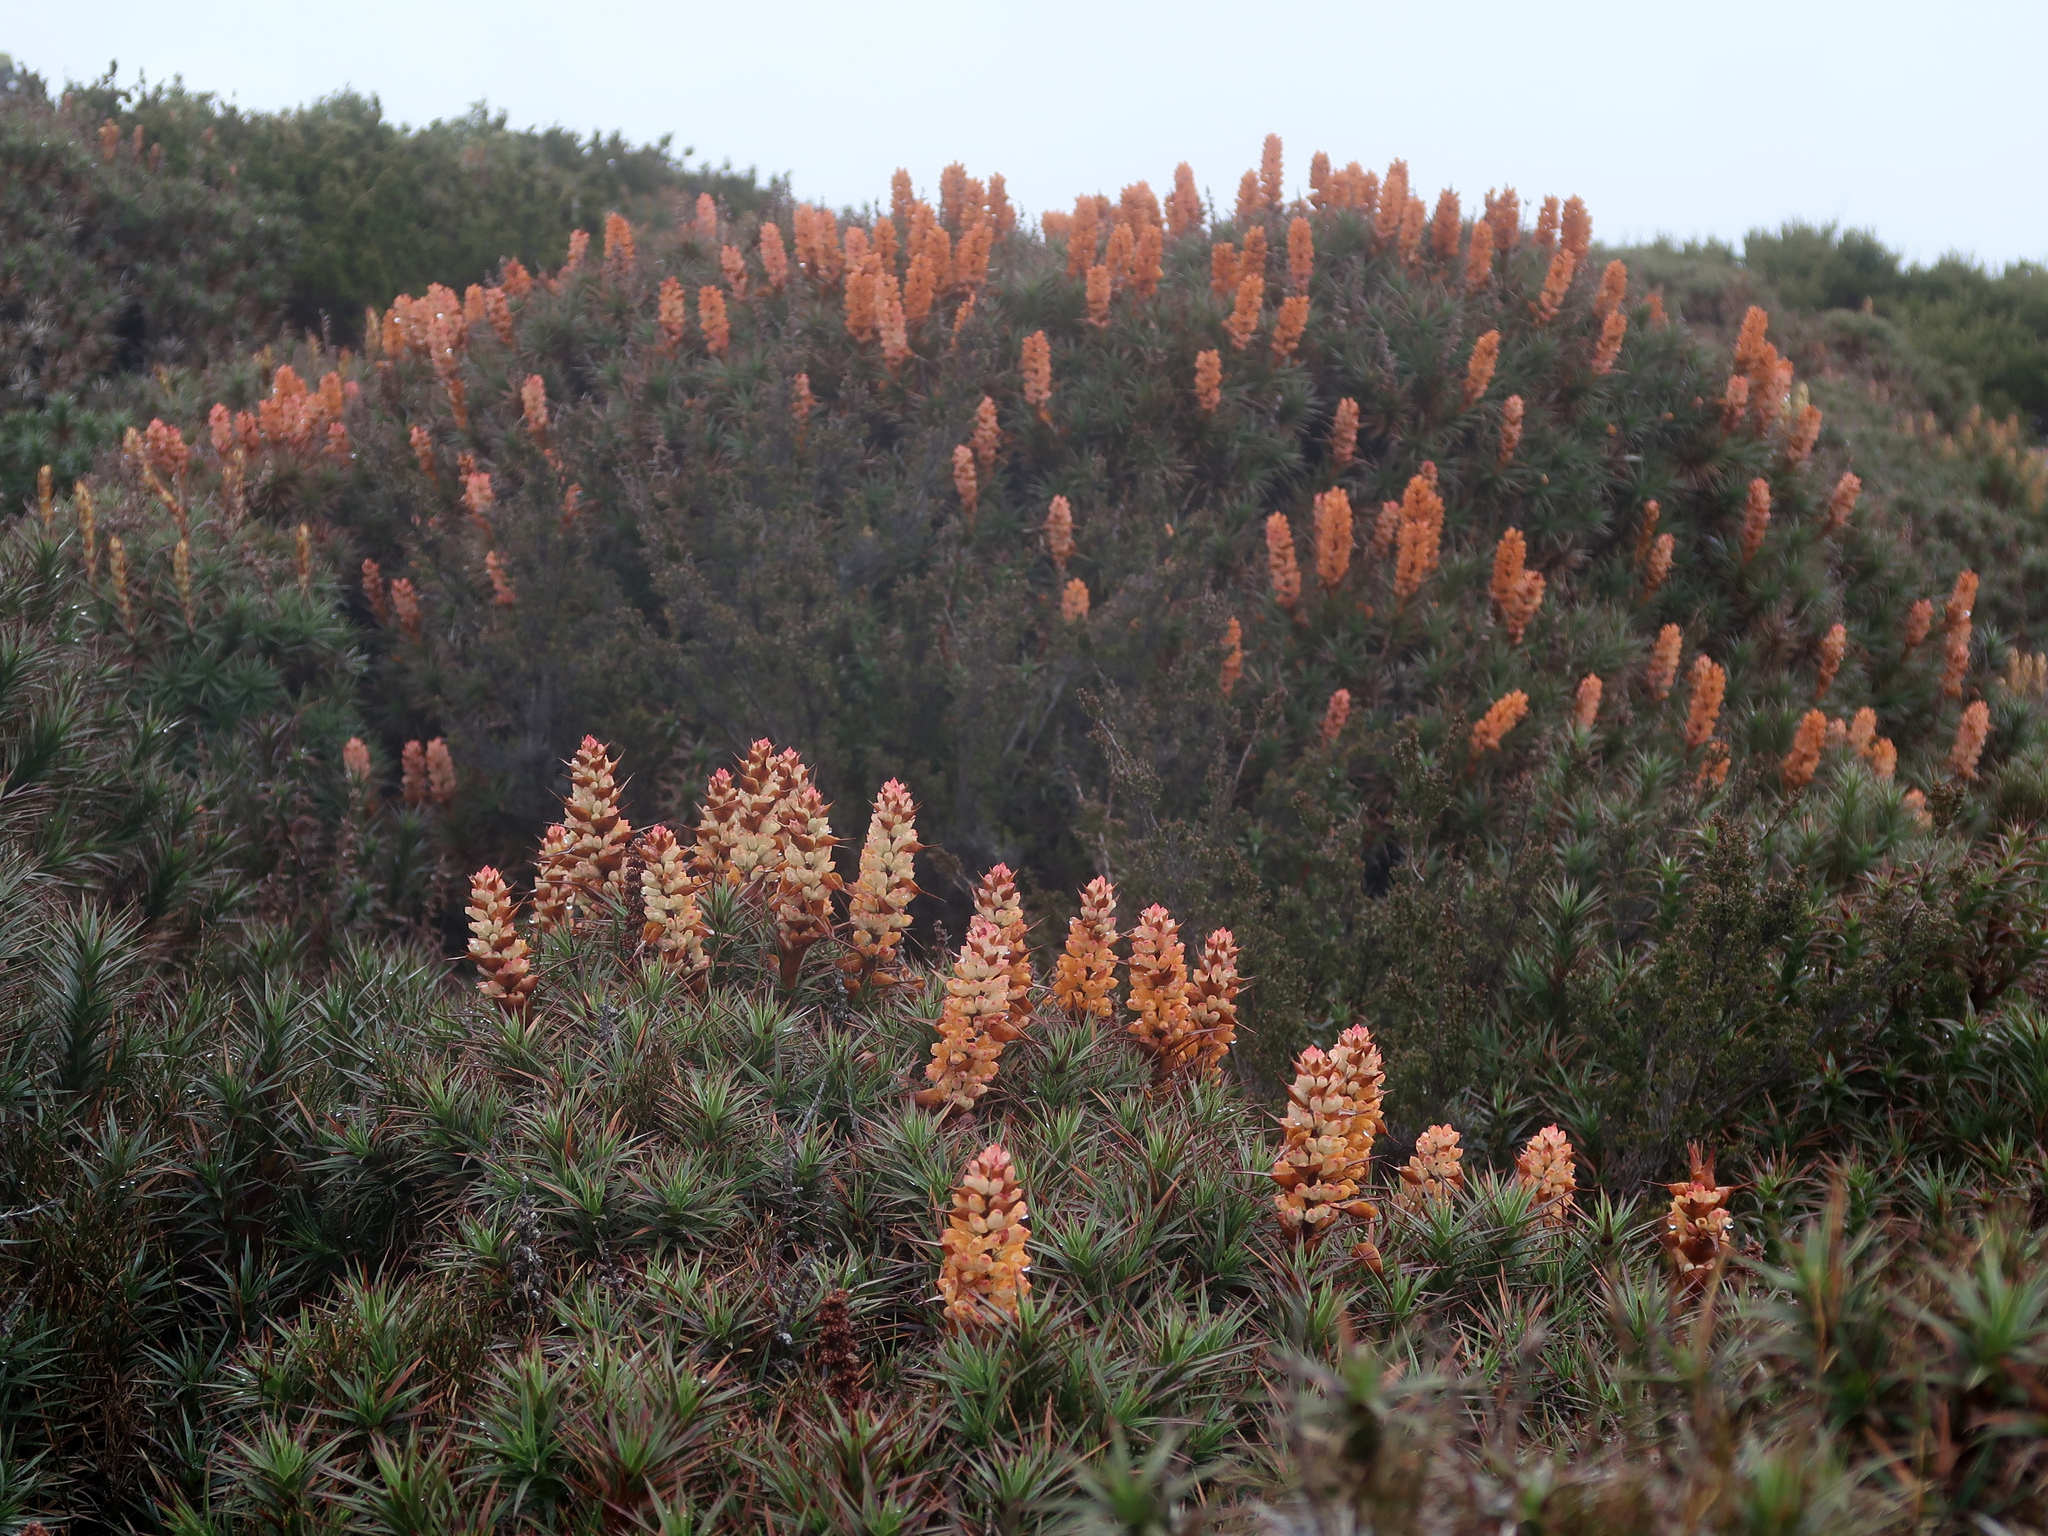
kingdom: Plantae
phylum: Tracheophyta
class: Magnoliopsida
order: Ericales
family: Ericaceae
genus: Dracophyllum
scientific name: Dracophyllum persistentifolium
